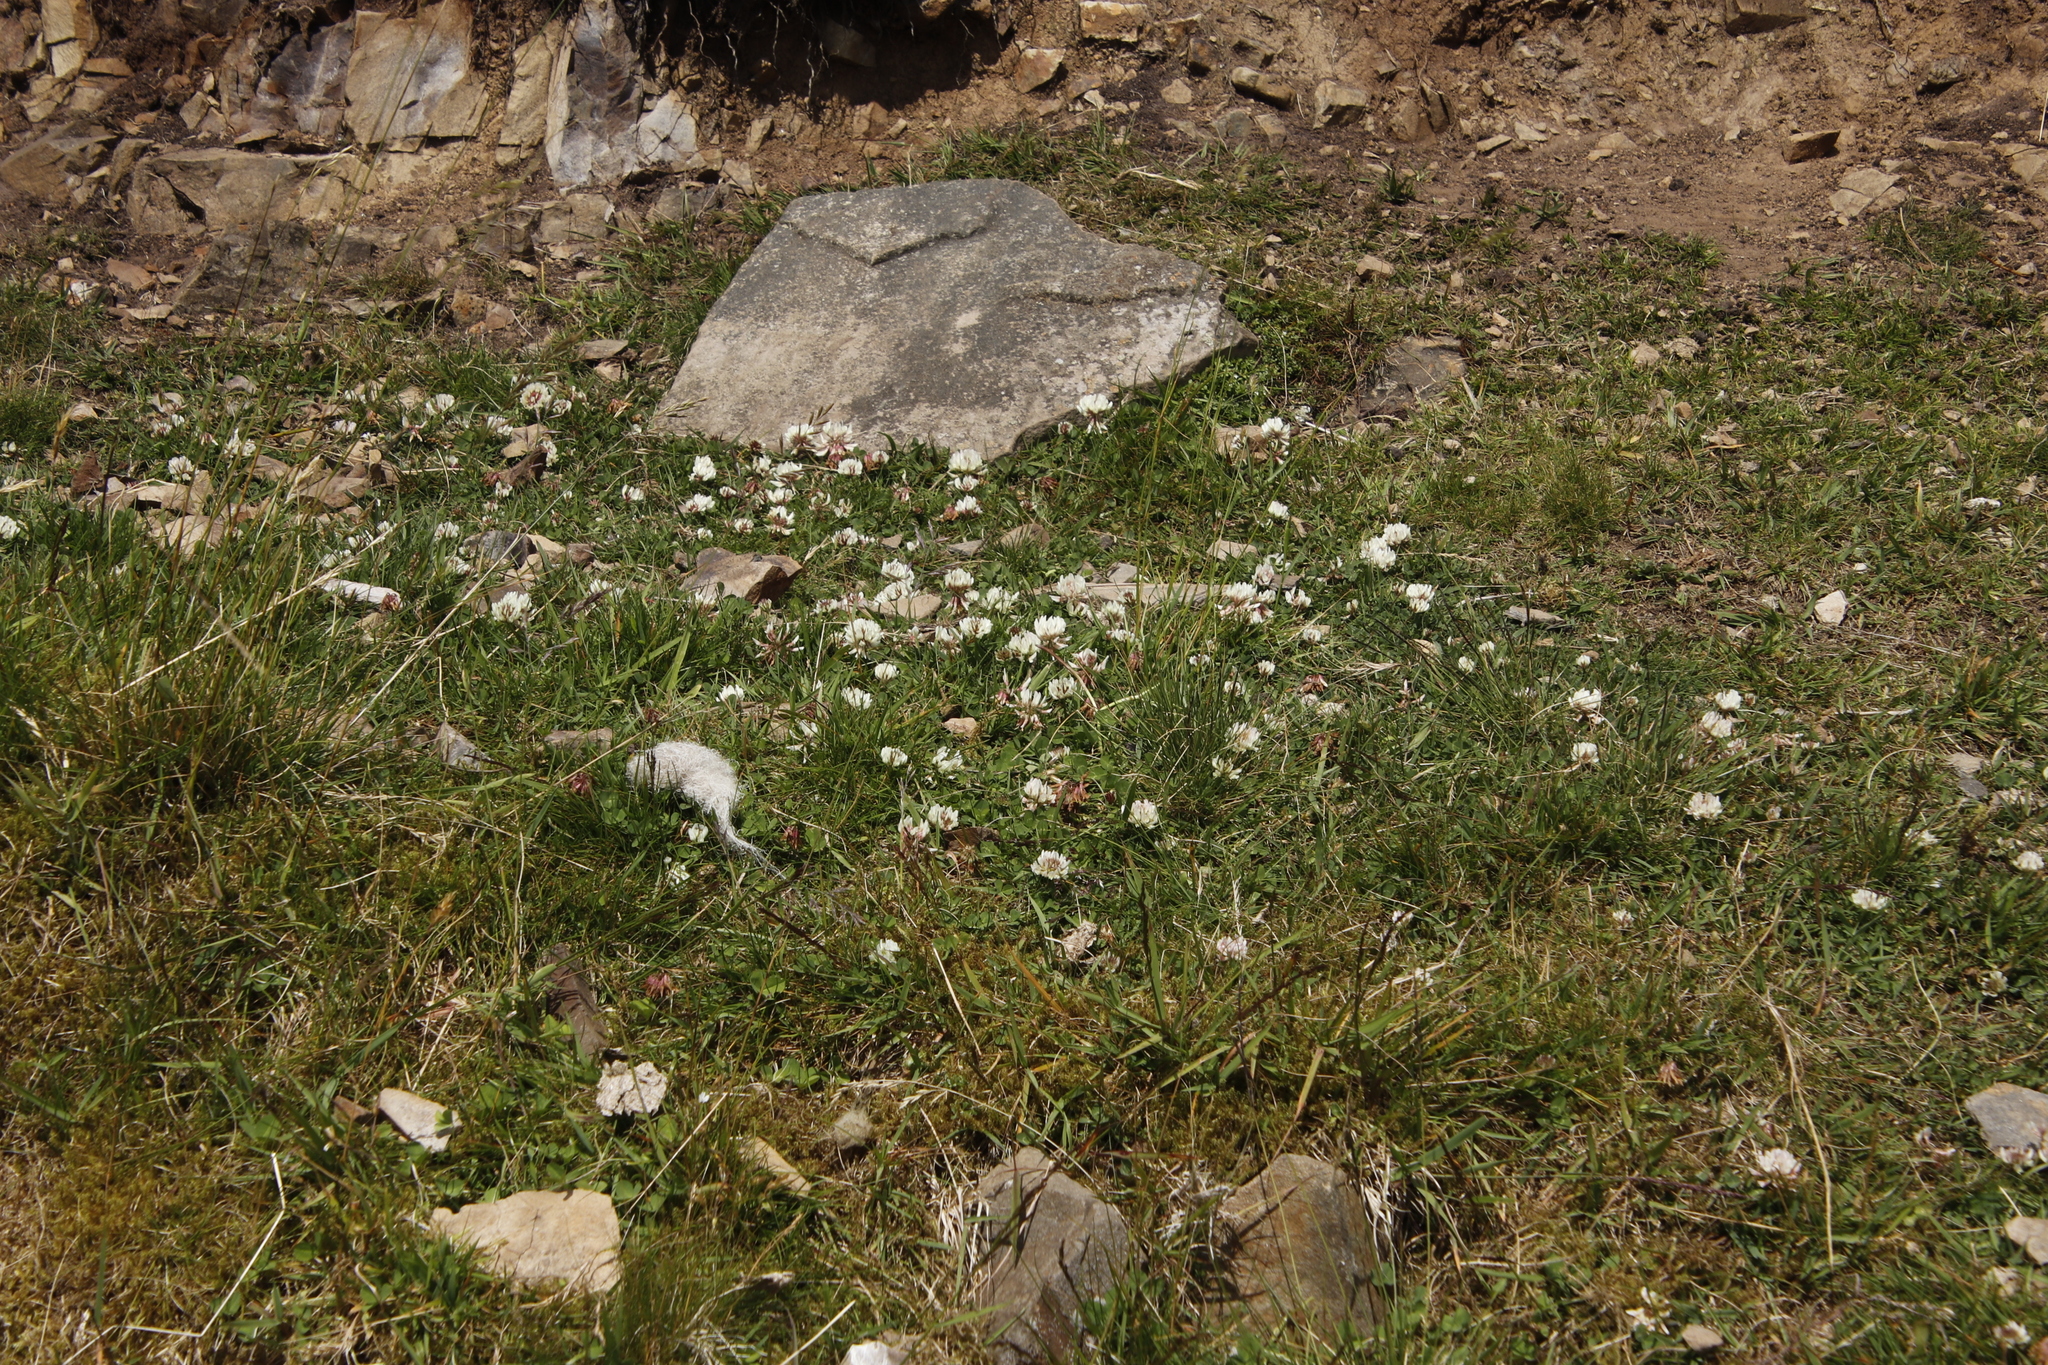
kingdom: Plantae
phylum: Tracheophyta
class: Magnoliopsida
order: Fabales
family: Fabaceae
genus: Trifolium
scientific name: Trifolium repens
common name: White clover
